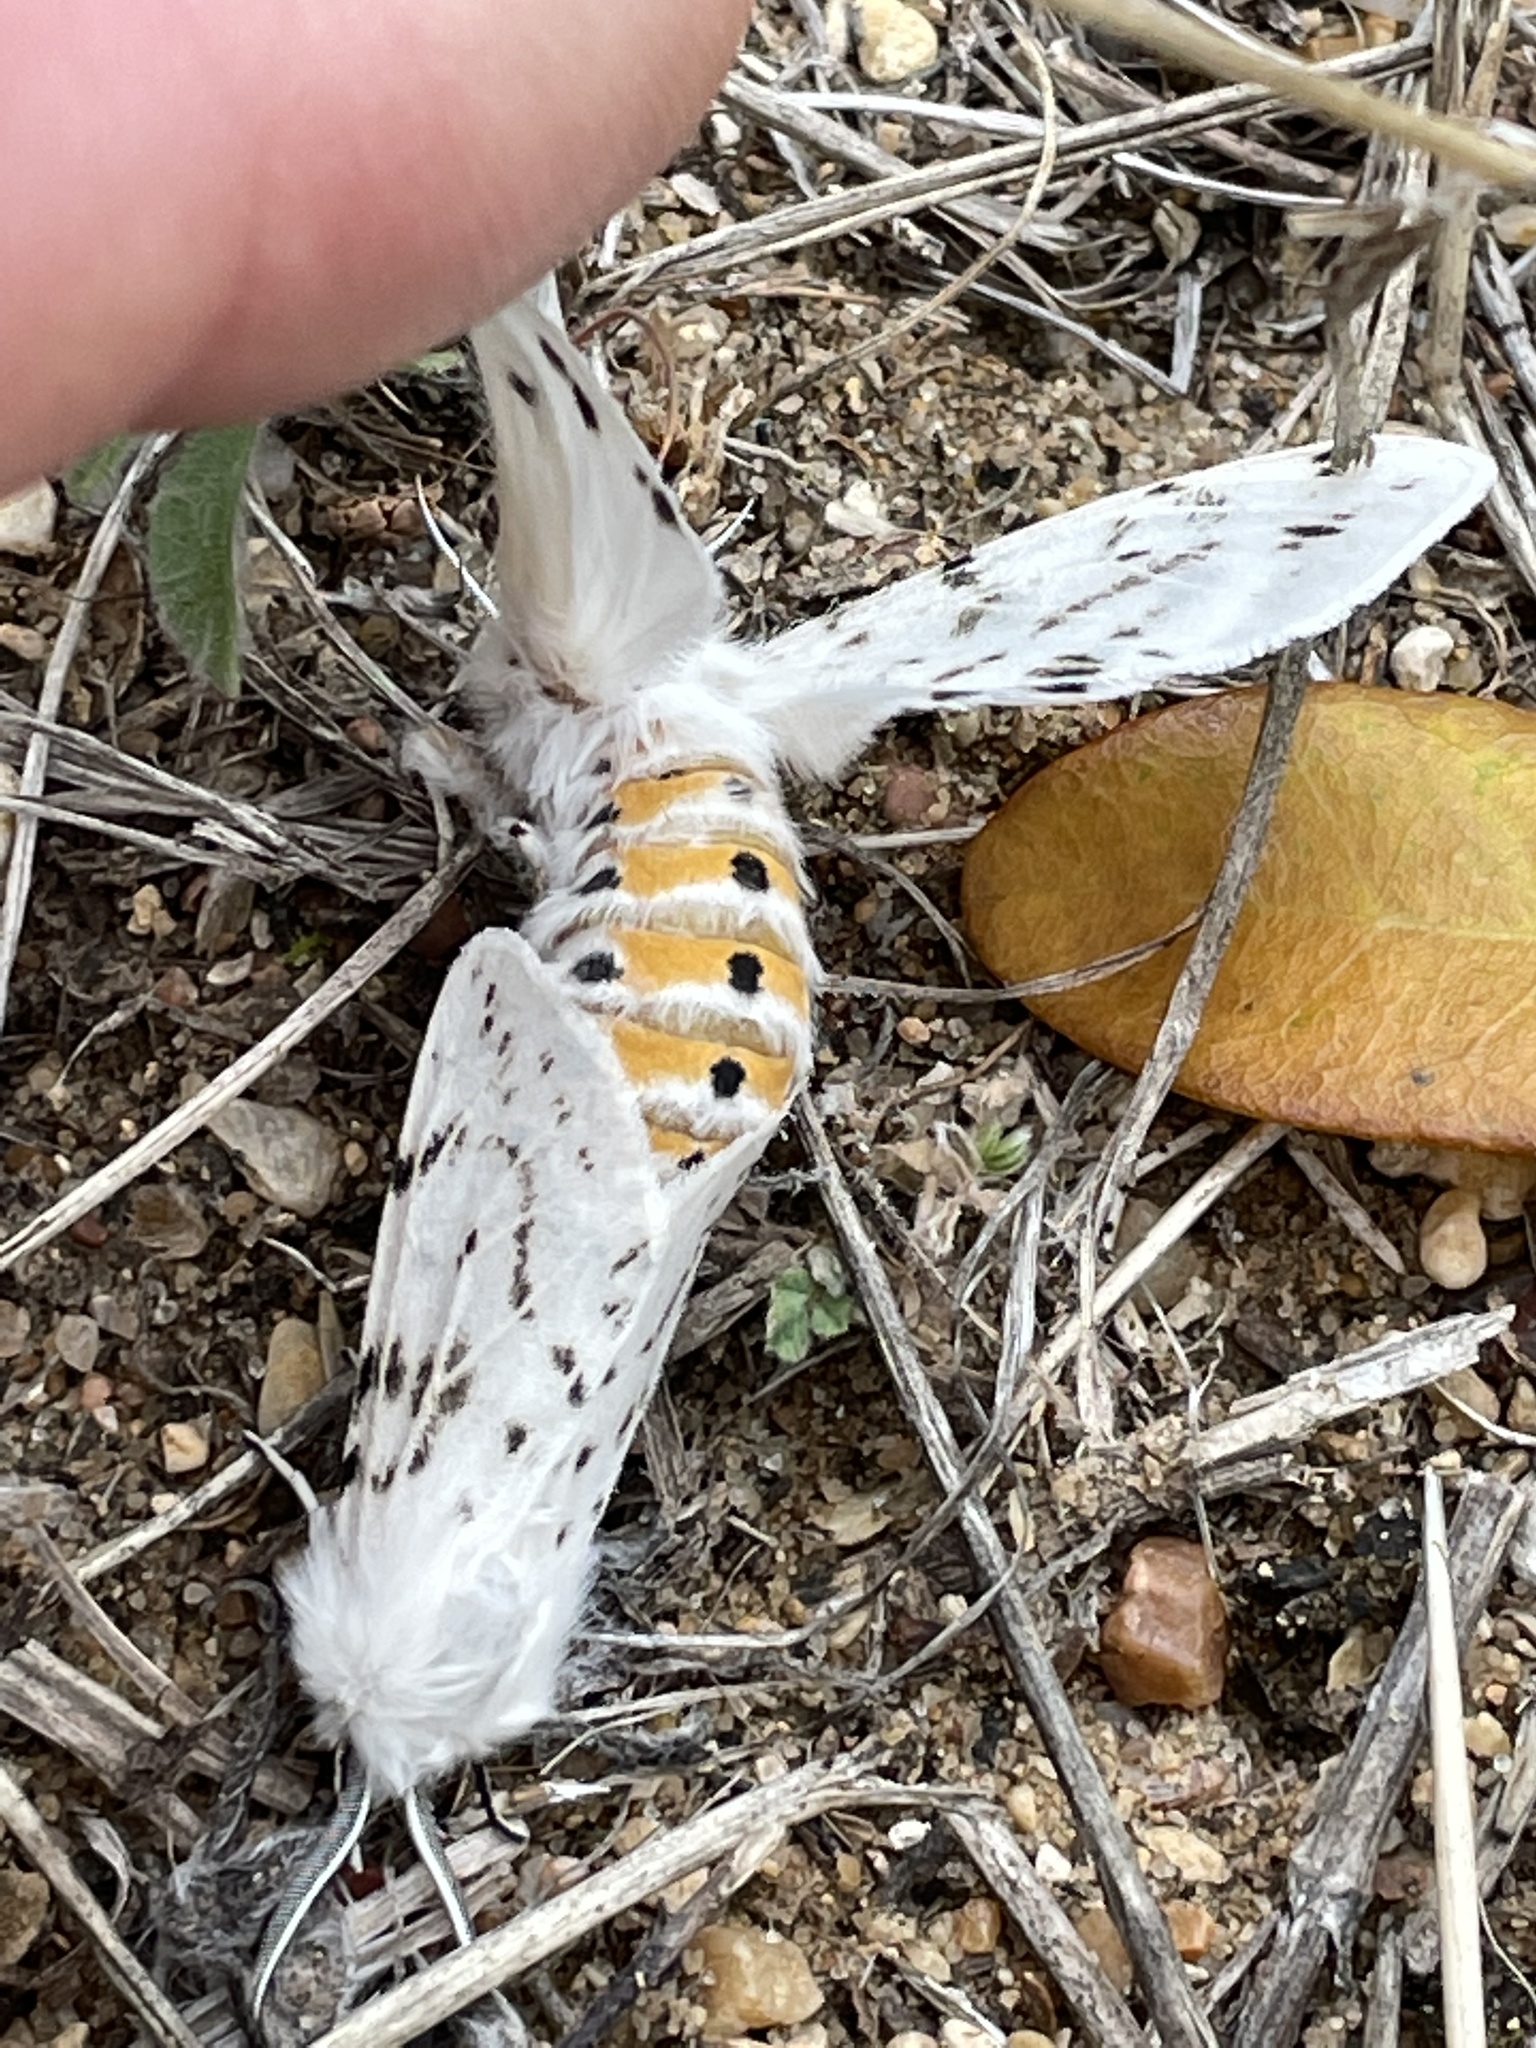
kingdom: Animalia
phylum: Arthropoda
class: Insecta
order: Lepidoptera
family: Erebidae
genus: Spilosoma
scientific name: Spilosoma dubia
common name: Dubious tiger moth
